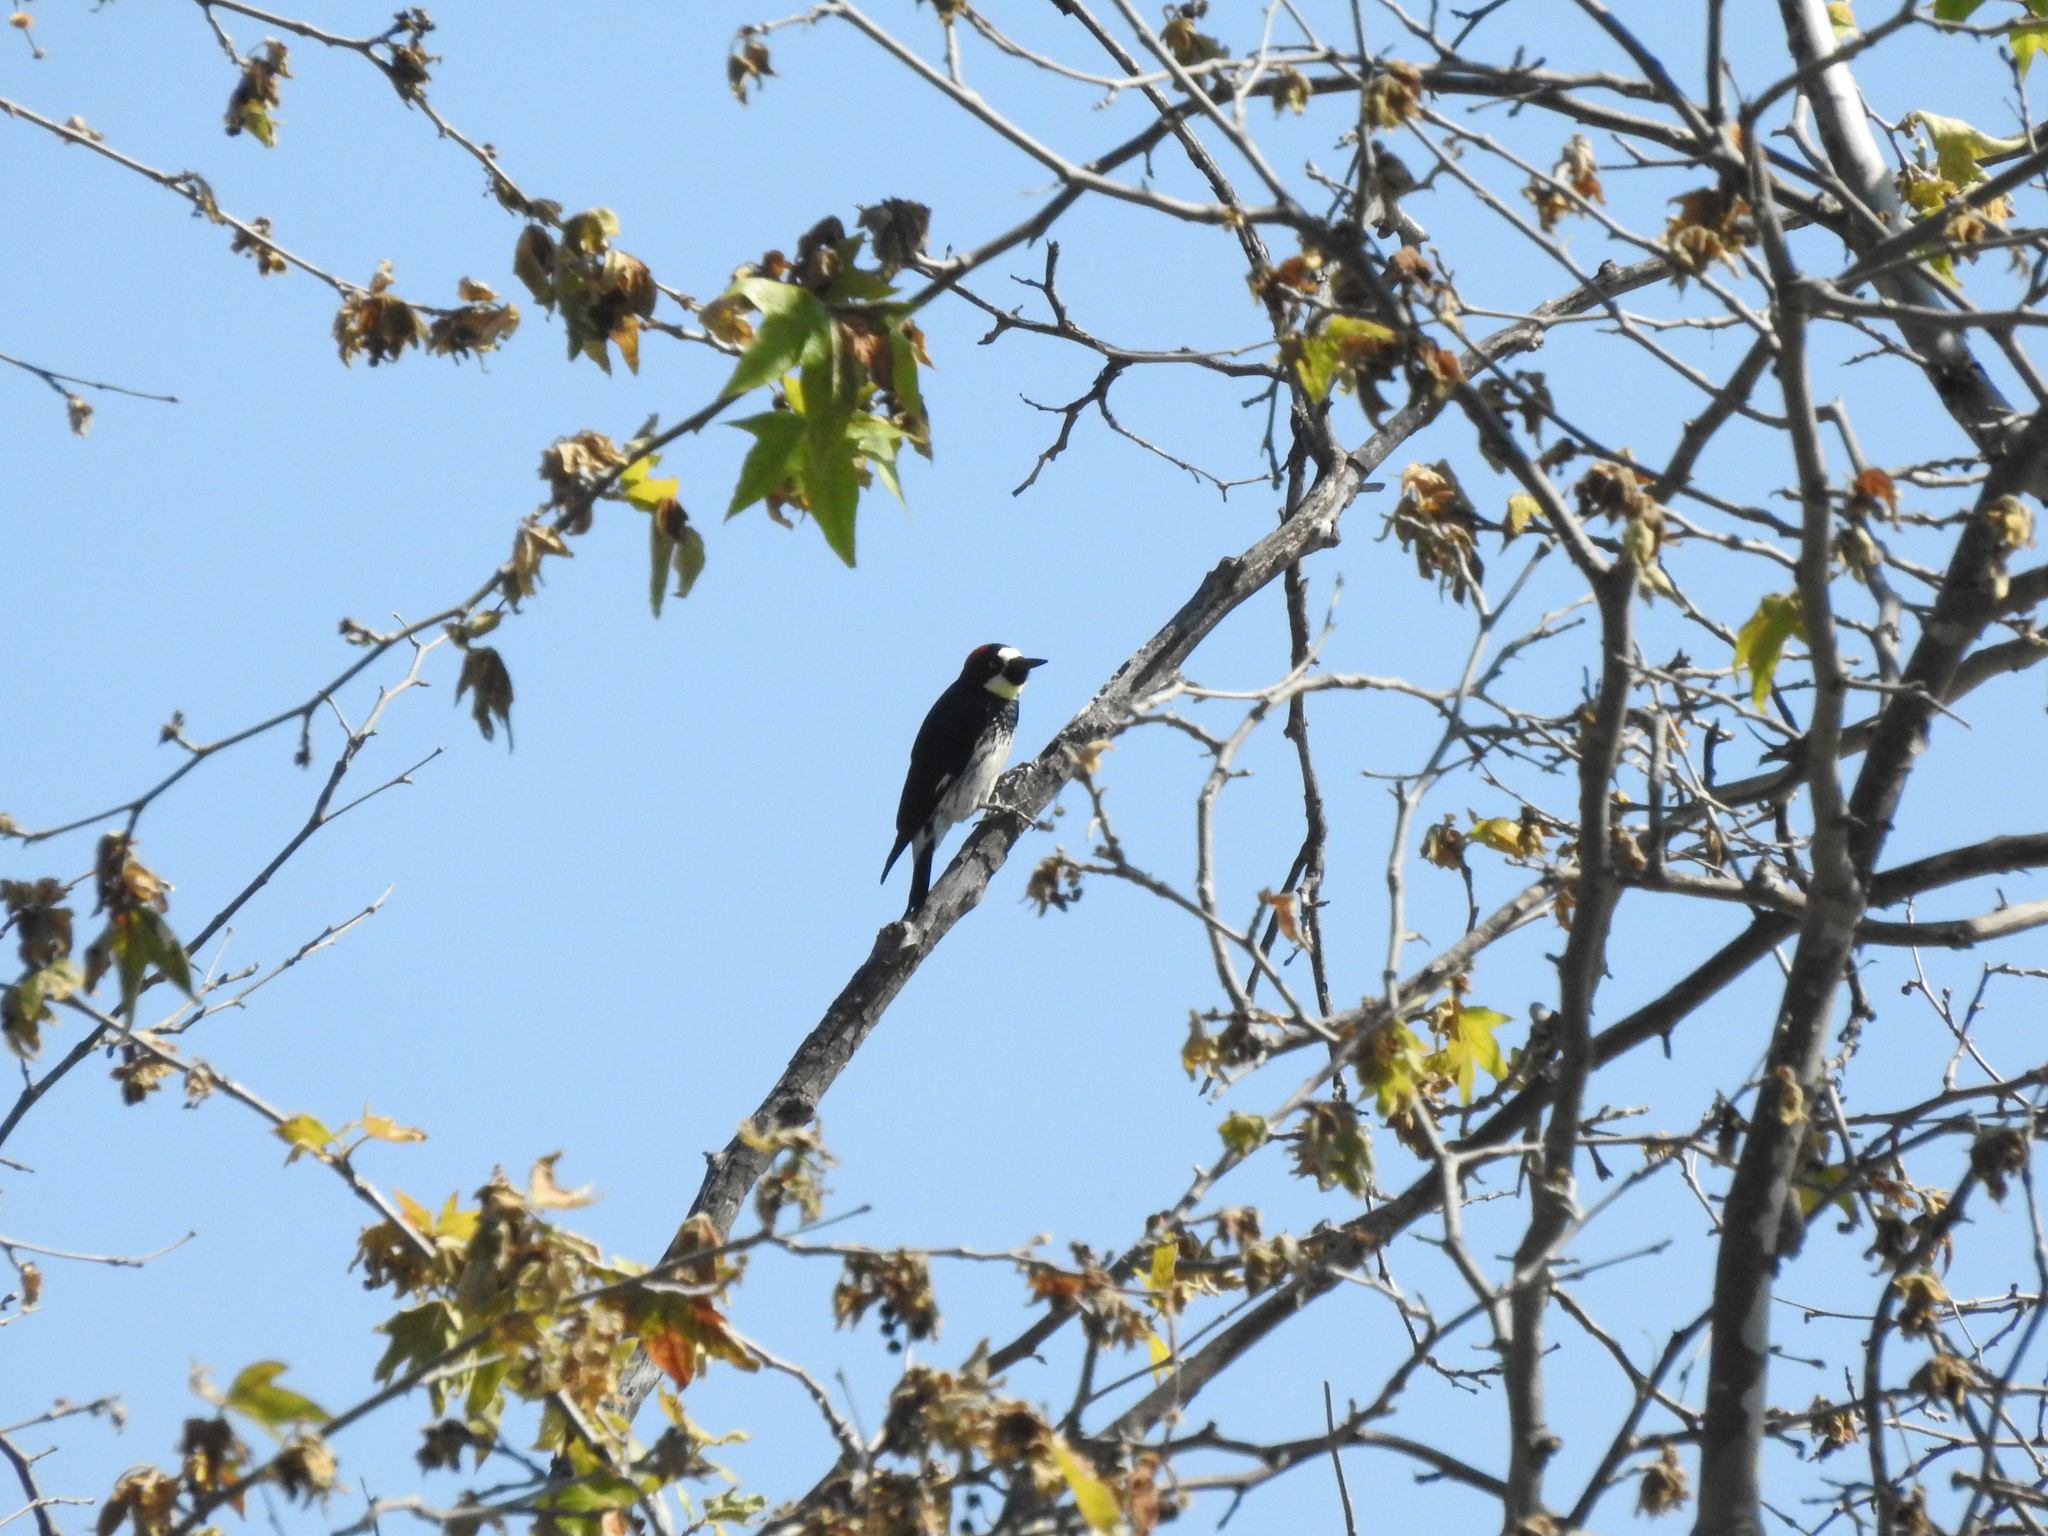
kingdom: Animalia
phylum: Chordata
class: Aves
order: Piciformes
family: Picidae
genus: Melanerpes
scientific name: Melanerpes formicivorus
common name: Acorn woodpecker
